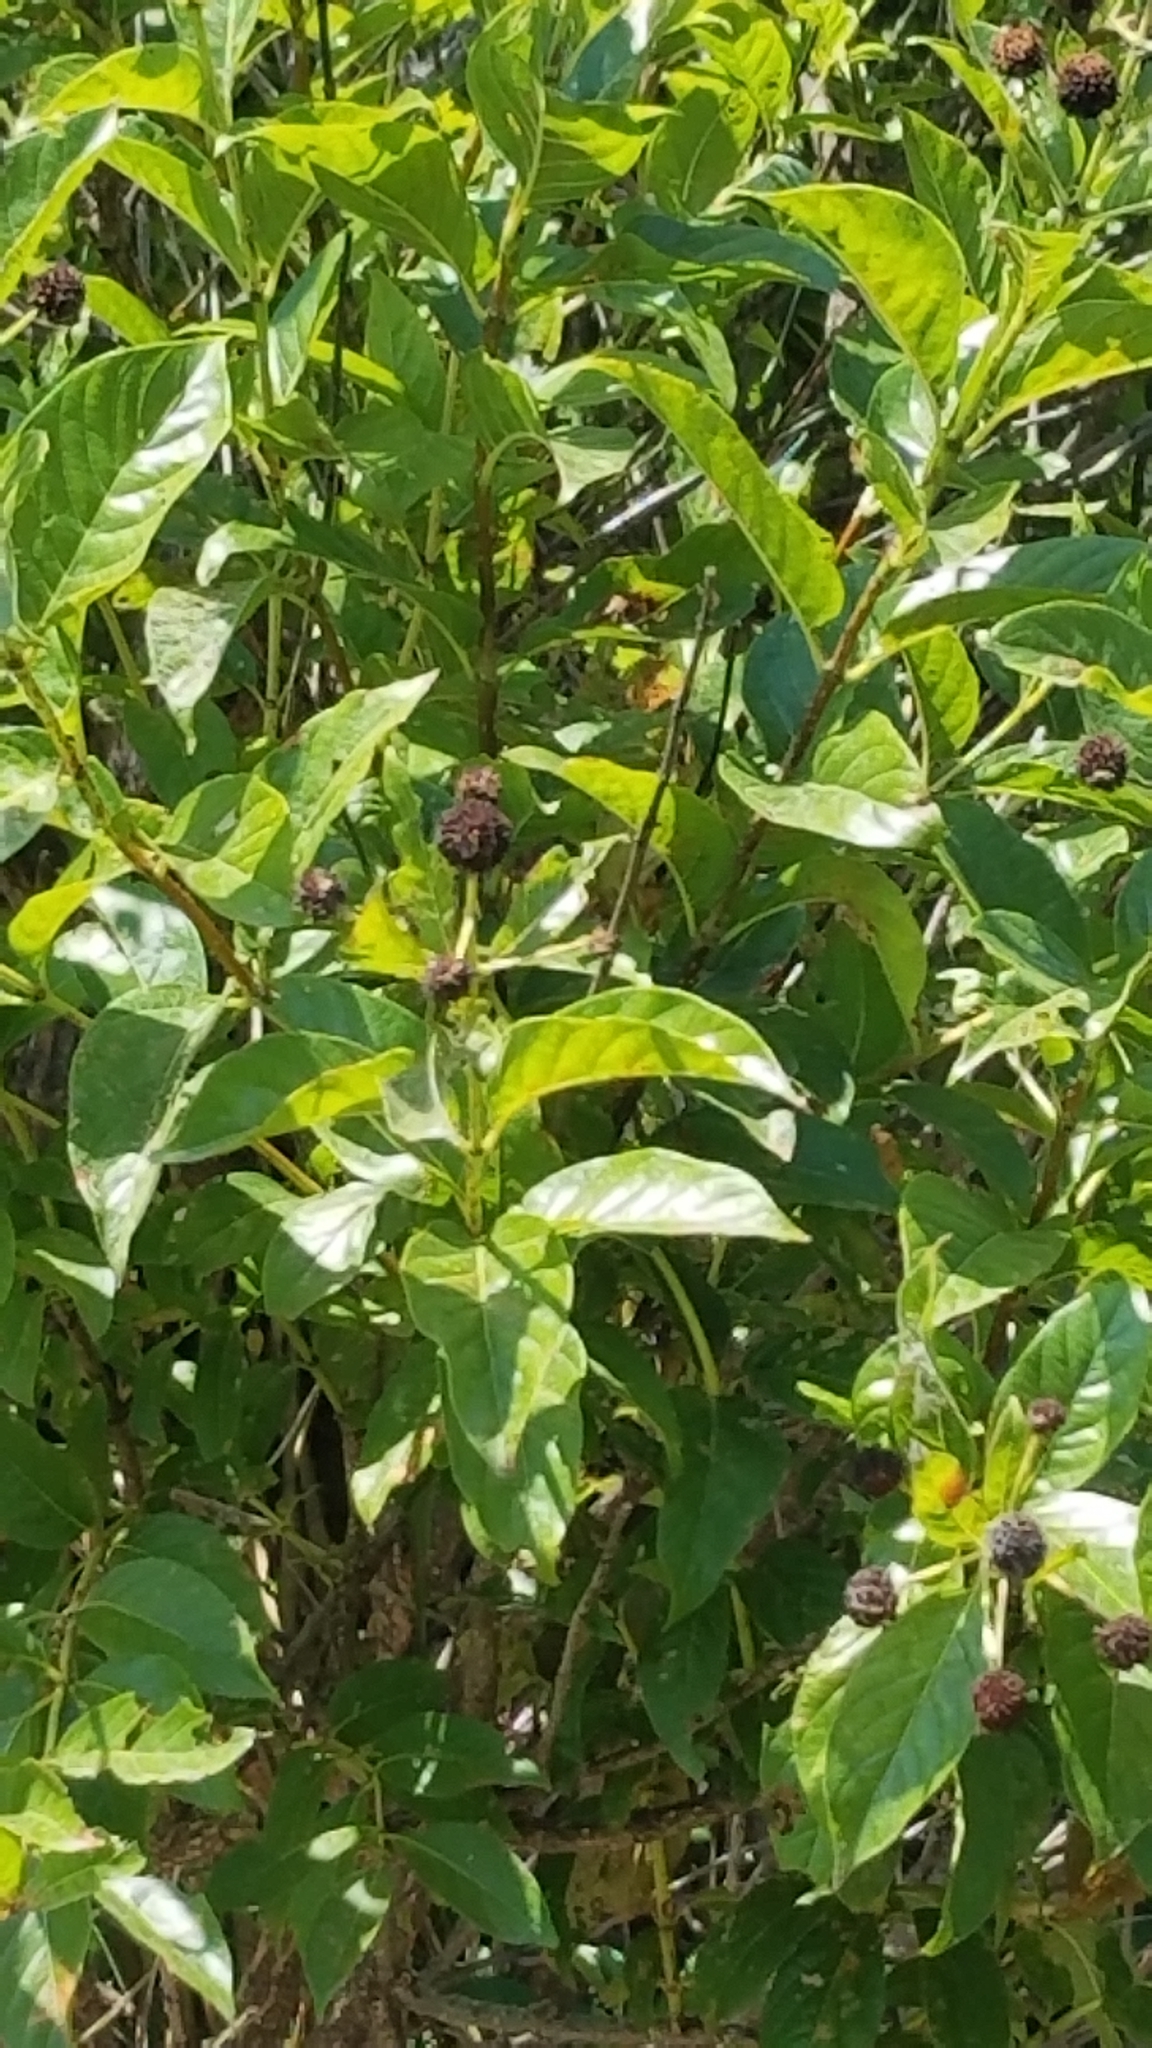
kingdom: Plantae
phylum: Tracheophyta
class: Magnoliopsida
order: Gentianales
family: Rubiaceae
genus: Cephalanthus
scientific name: Cephalanthus occidentalis
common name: Button-willow
